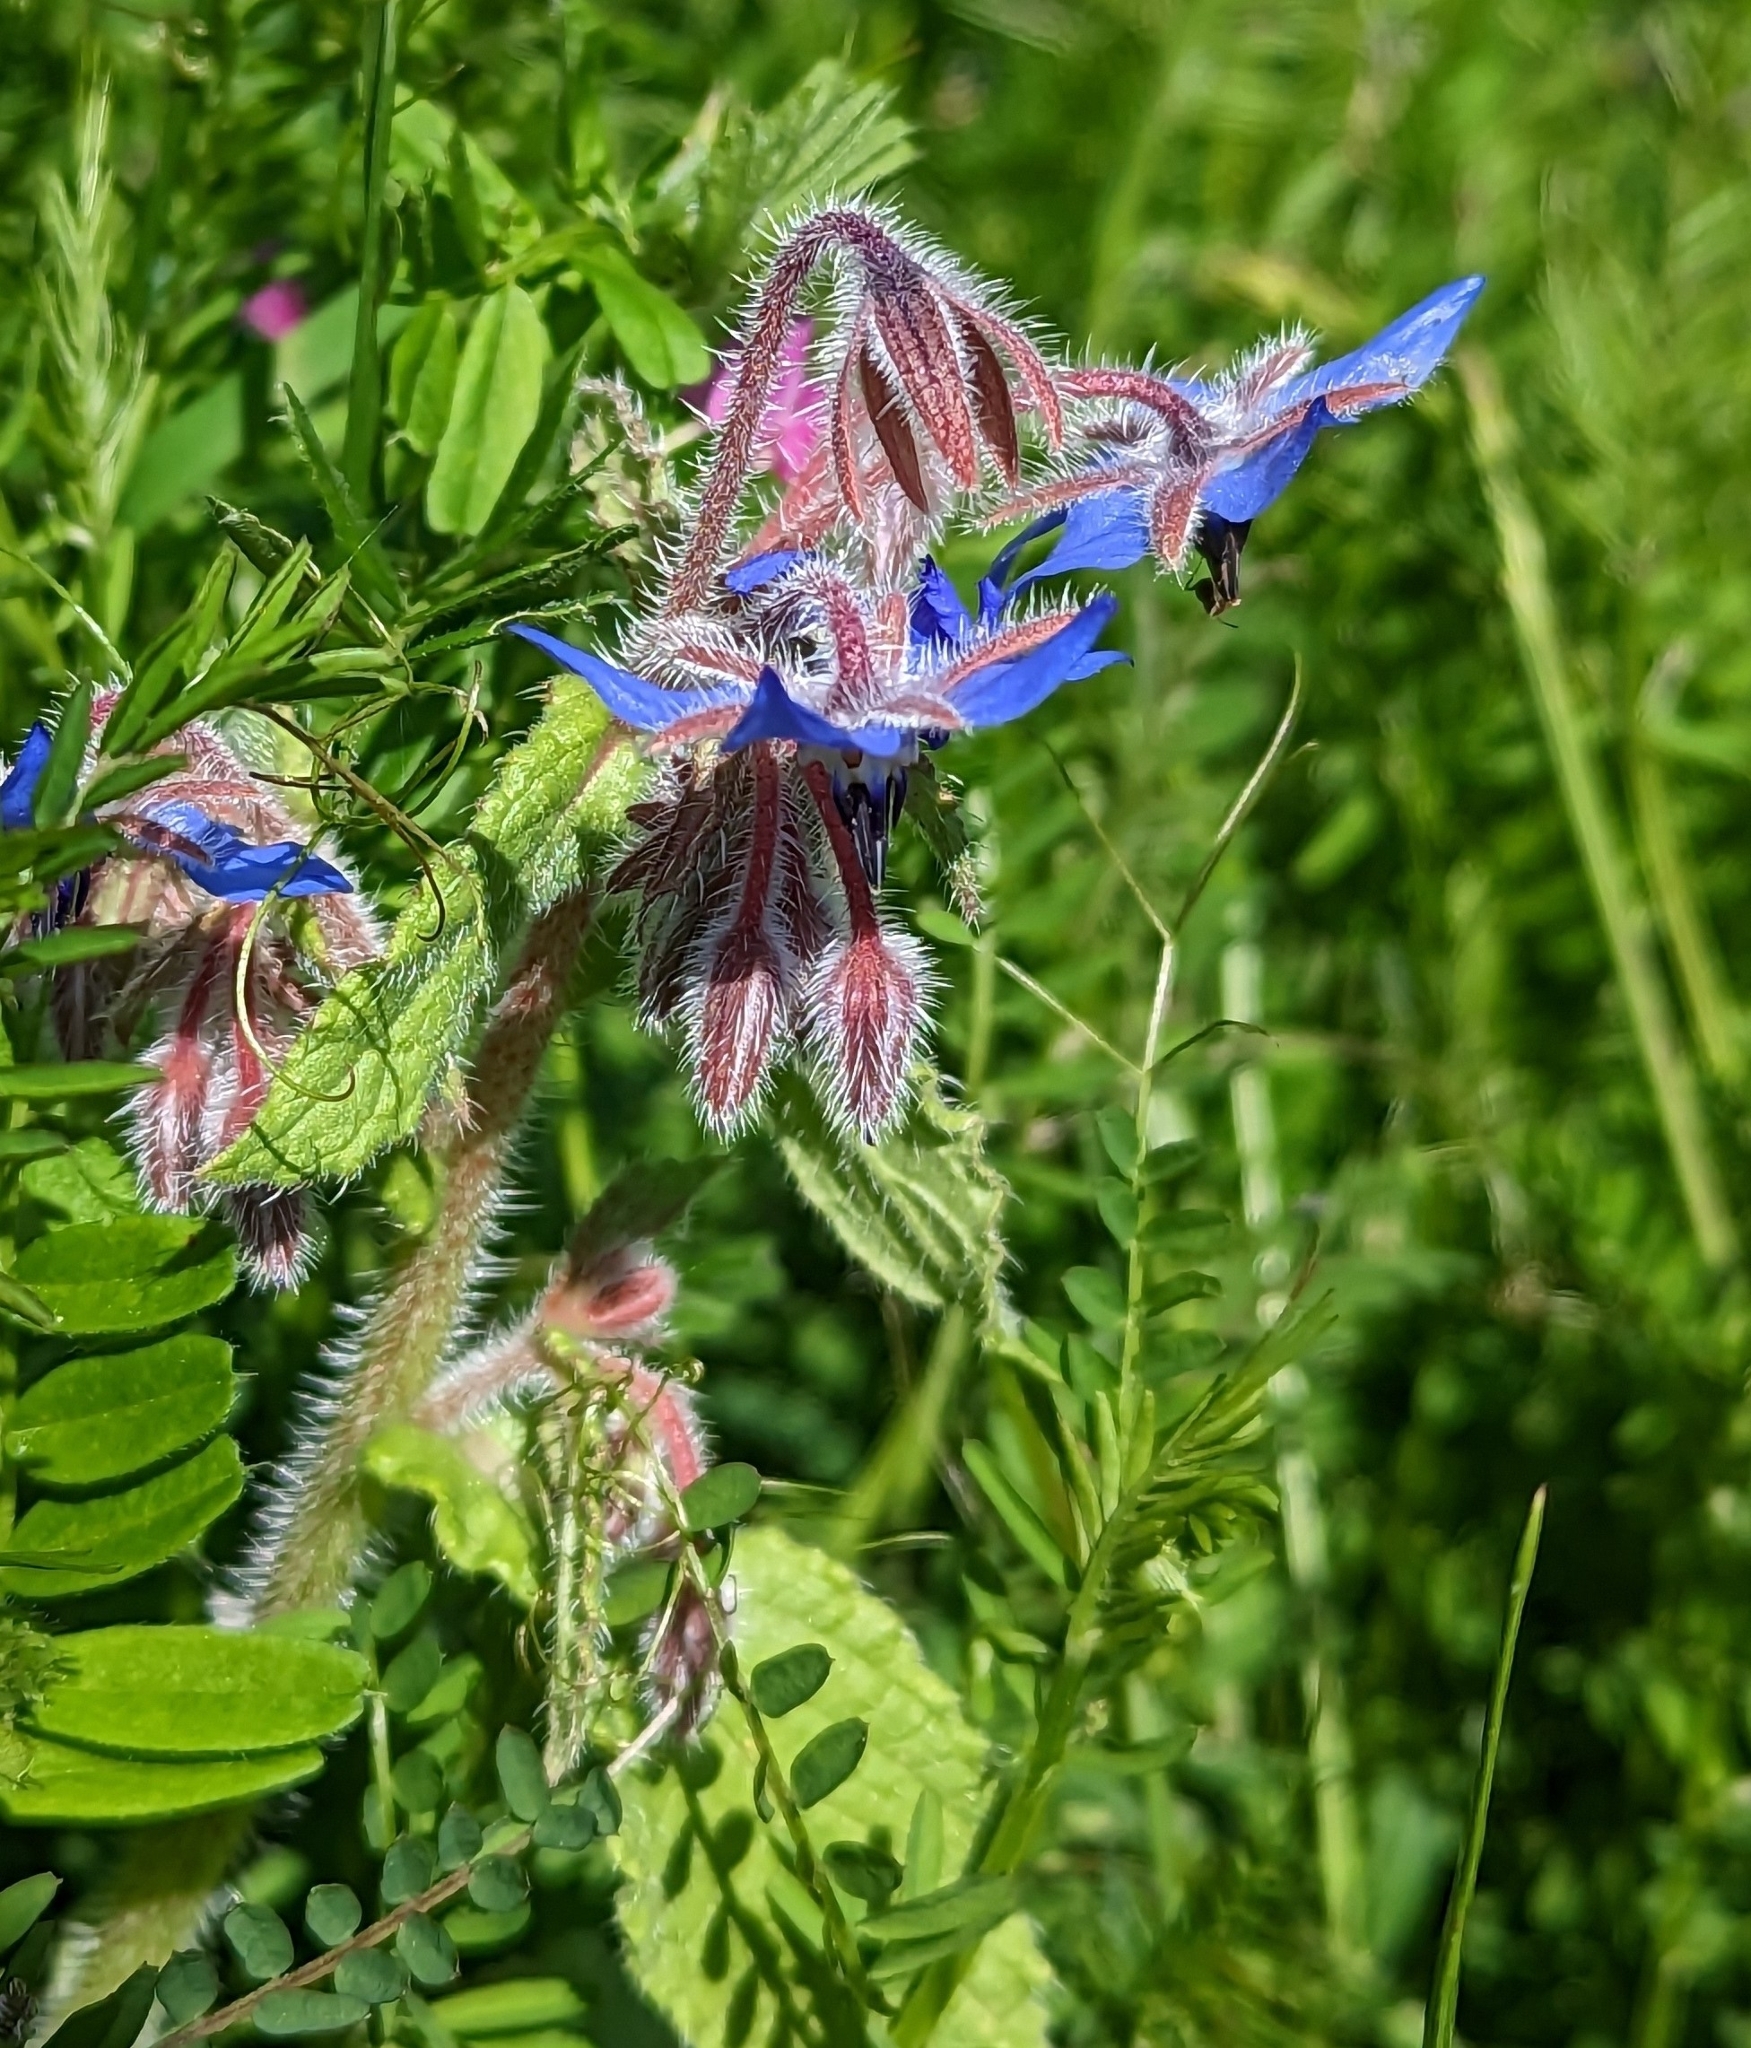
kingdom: Plantae
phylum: Tracheophyta
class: Magnoliopsida
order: Boraginales
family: Boraginaceae
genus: Borago
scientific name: Borago officinalis
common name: Borage
